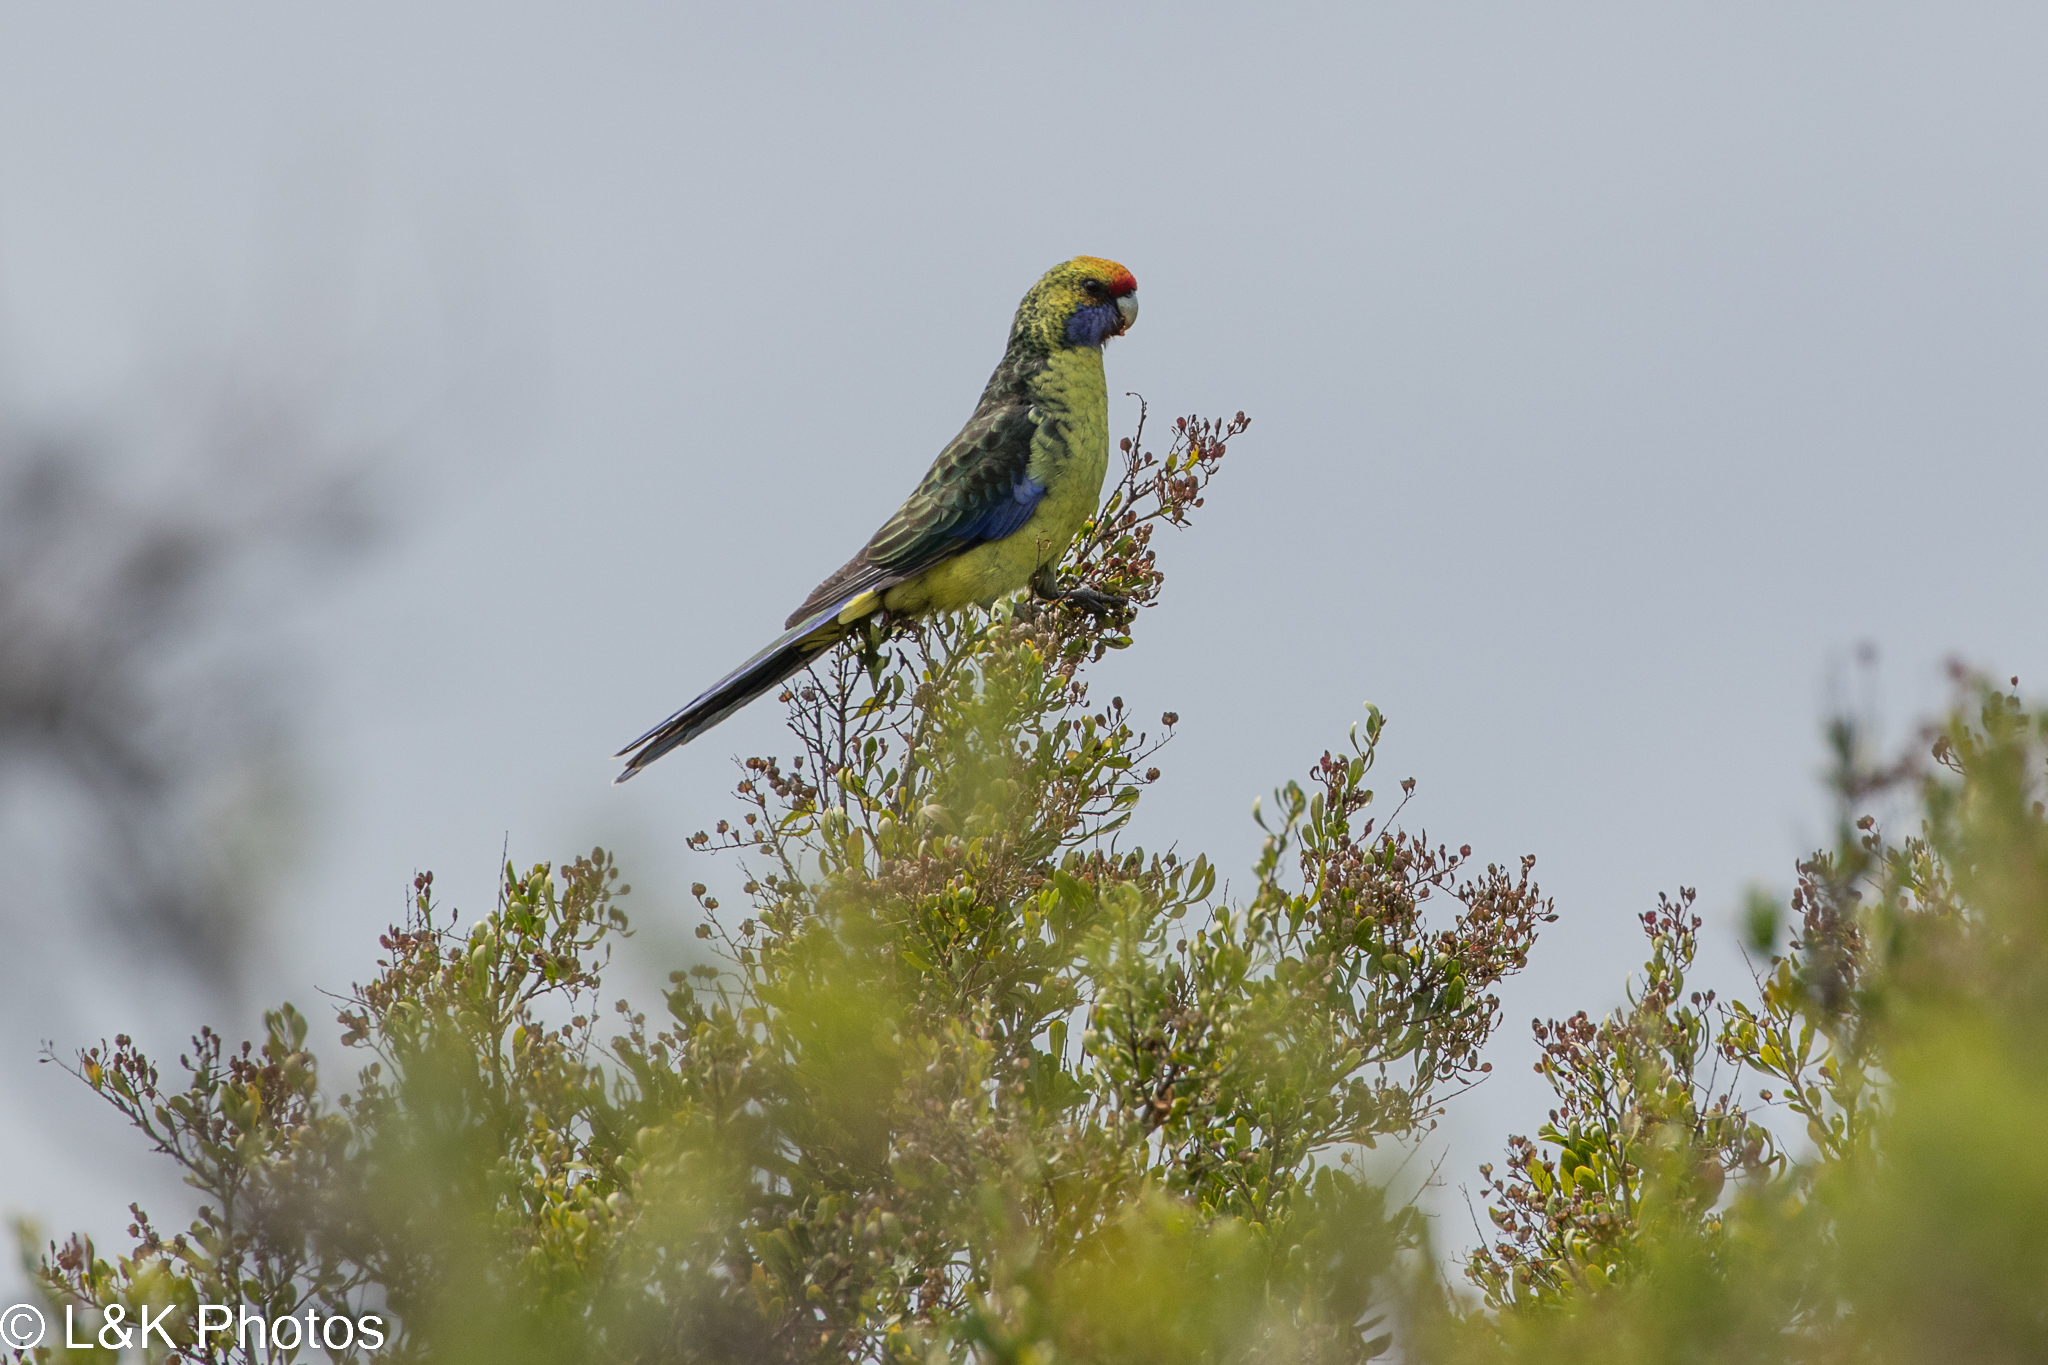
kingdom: Animalia
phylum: Chordata
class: Aves
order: Psittaciformes
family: Psittacidae
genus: Platycercus
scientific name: Platycercus caledonicus
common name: Green rosella
